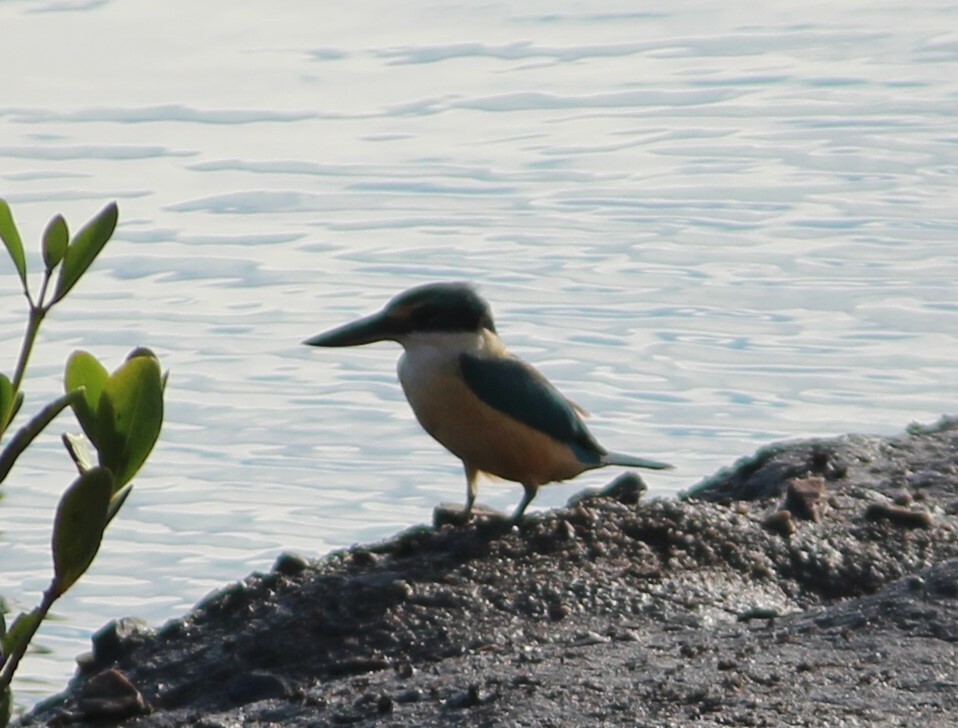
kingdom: Animalia
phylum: Chordata
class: Aves
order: Coraciiformes
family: Alcedinidae
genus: Todiramphus
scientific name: Todiramphus sanctus
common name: Sacred kingfisher
